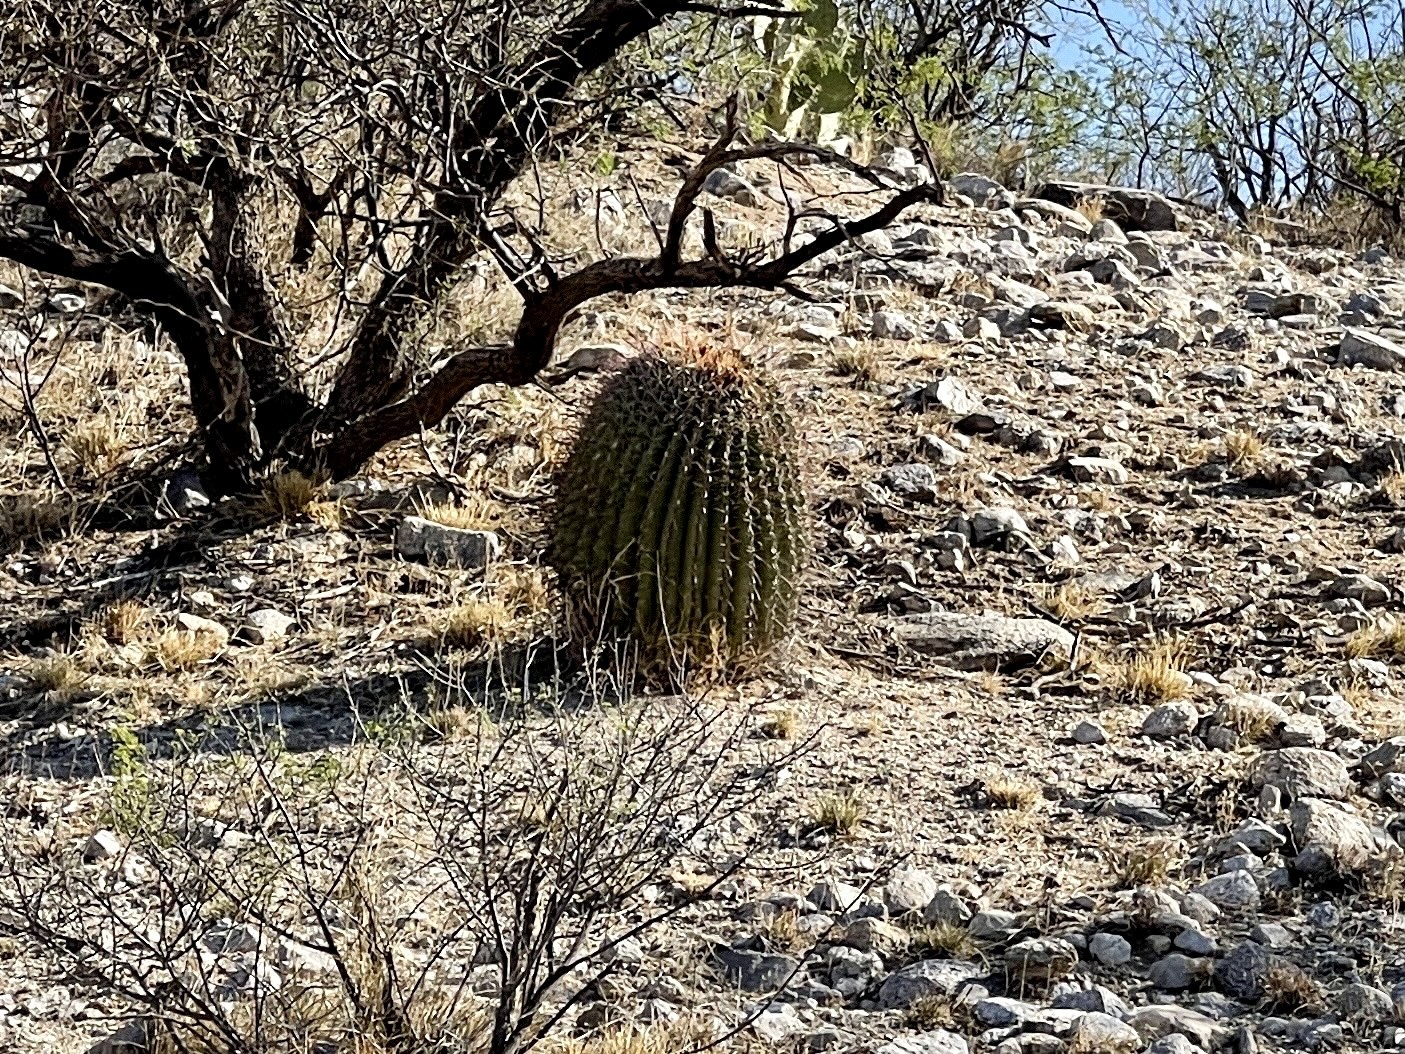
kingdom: Plantae
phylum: Tracheophyta
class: Magnoliopsida
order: Caryophyllales
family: Cactaceae
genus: Ferocactus
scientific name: Ferocactus wislizeni
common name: Candy barrel cactus
